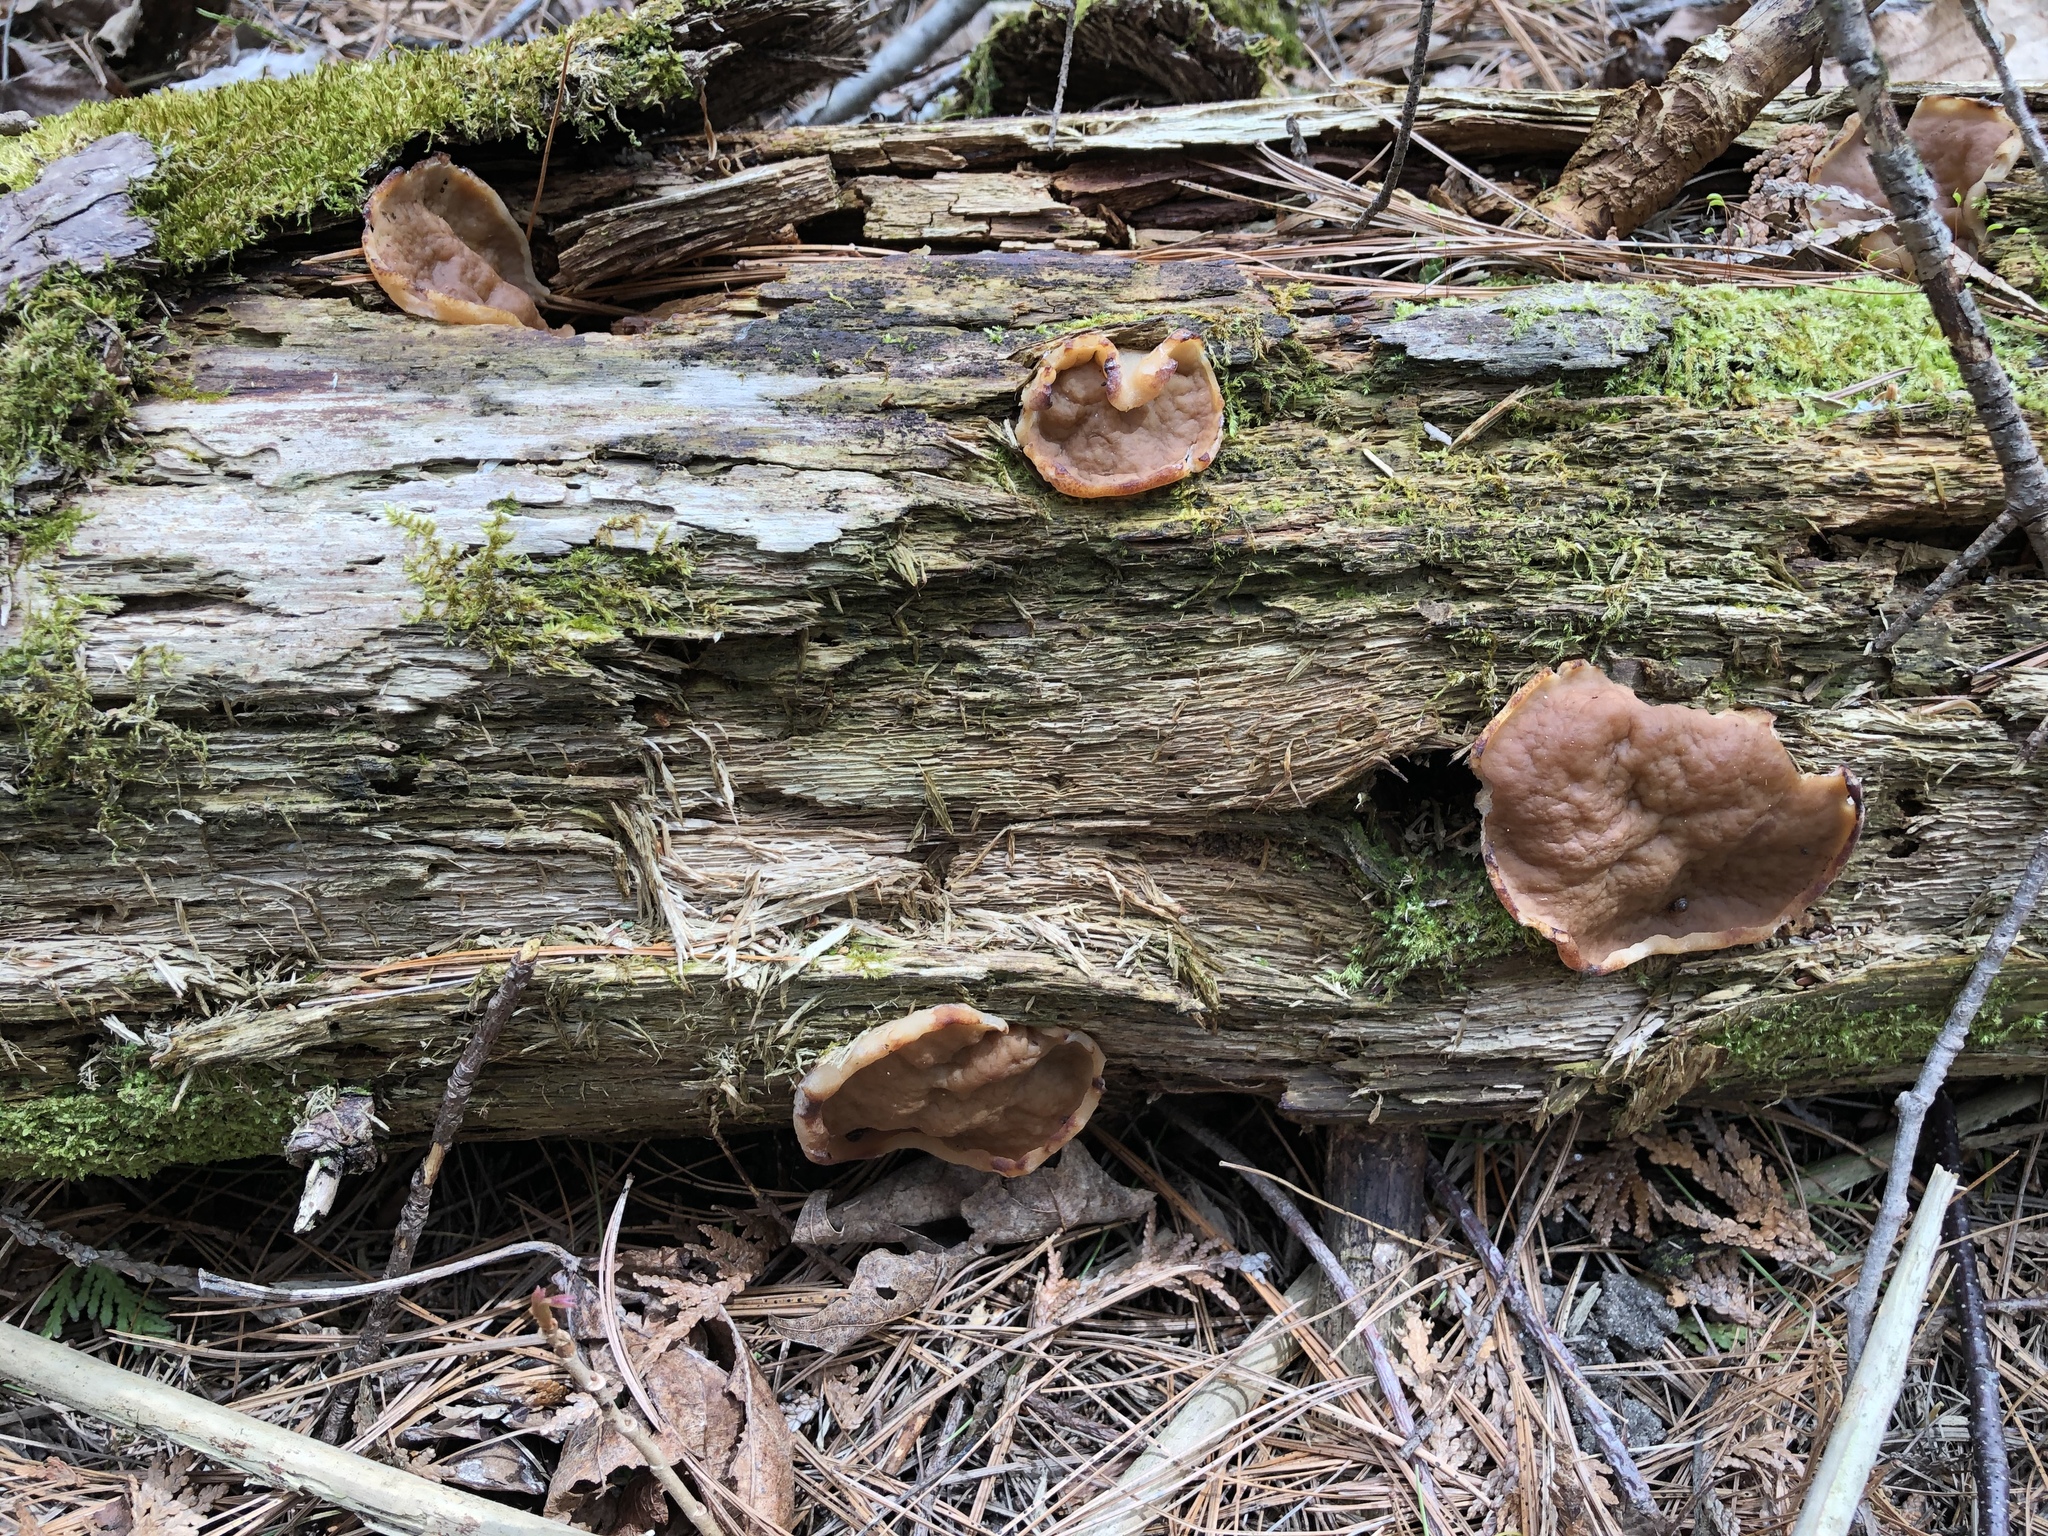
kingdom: Fungi
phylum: Ascomycota
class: Pezizomycetes
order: Pezizales
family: Discinaceae
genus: Discina
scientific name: Discina ancilis
